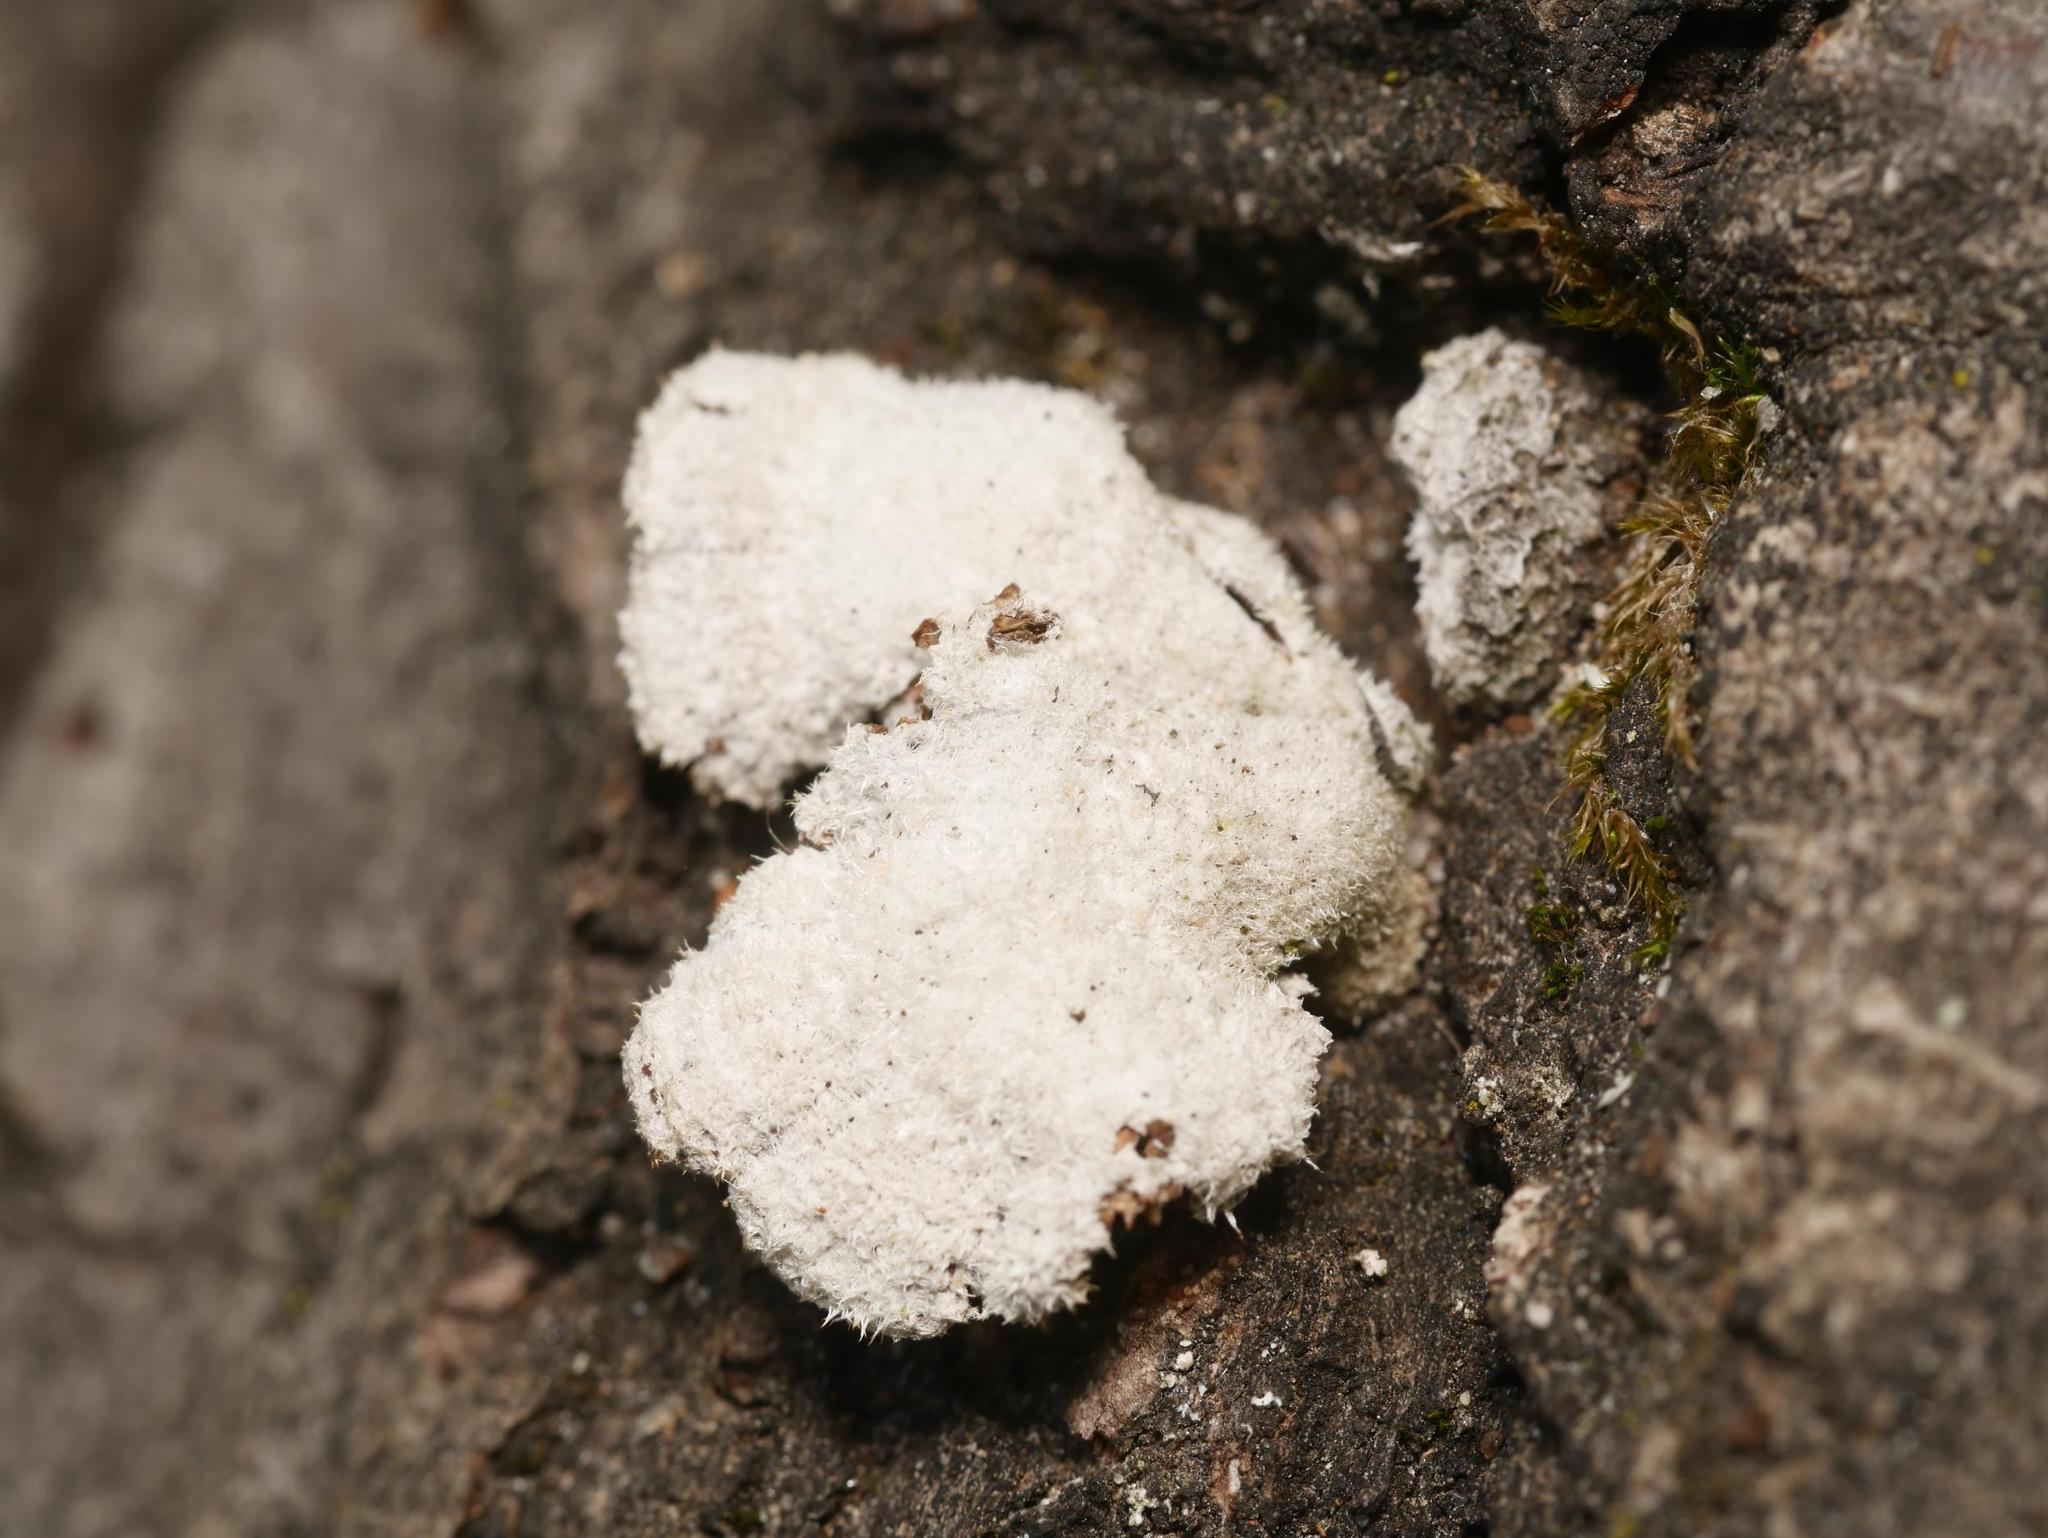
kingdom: Fungi
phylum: Basidiomycota
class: Agaricomycetes
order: Agaricales
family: Schizophyllaceae
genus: Schizophyllum
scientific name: Schizophyllum commune
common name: Common porecrust
